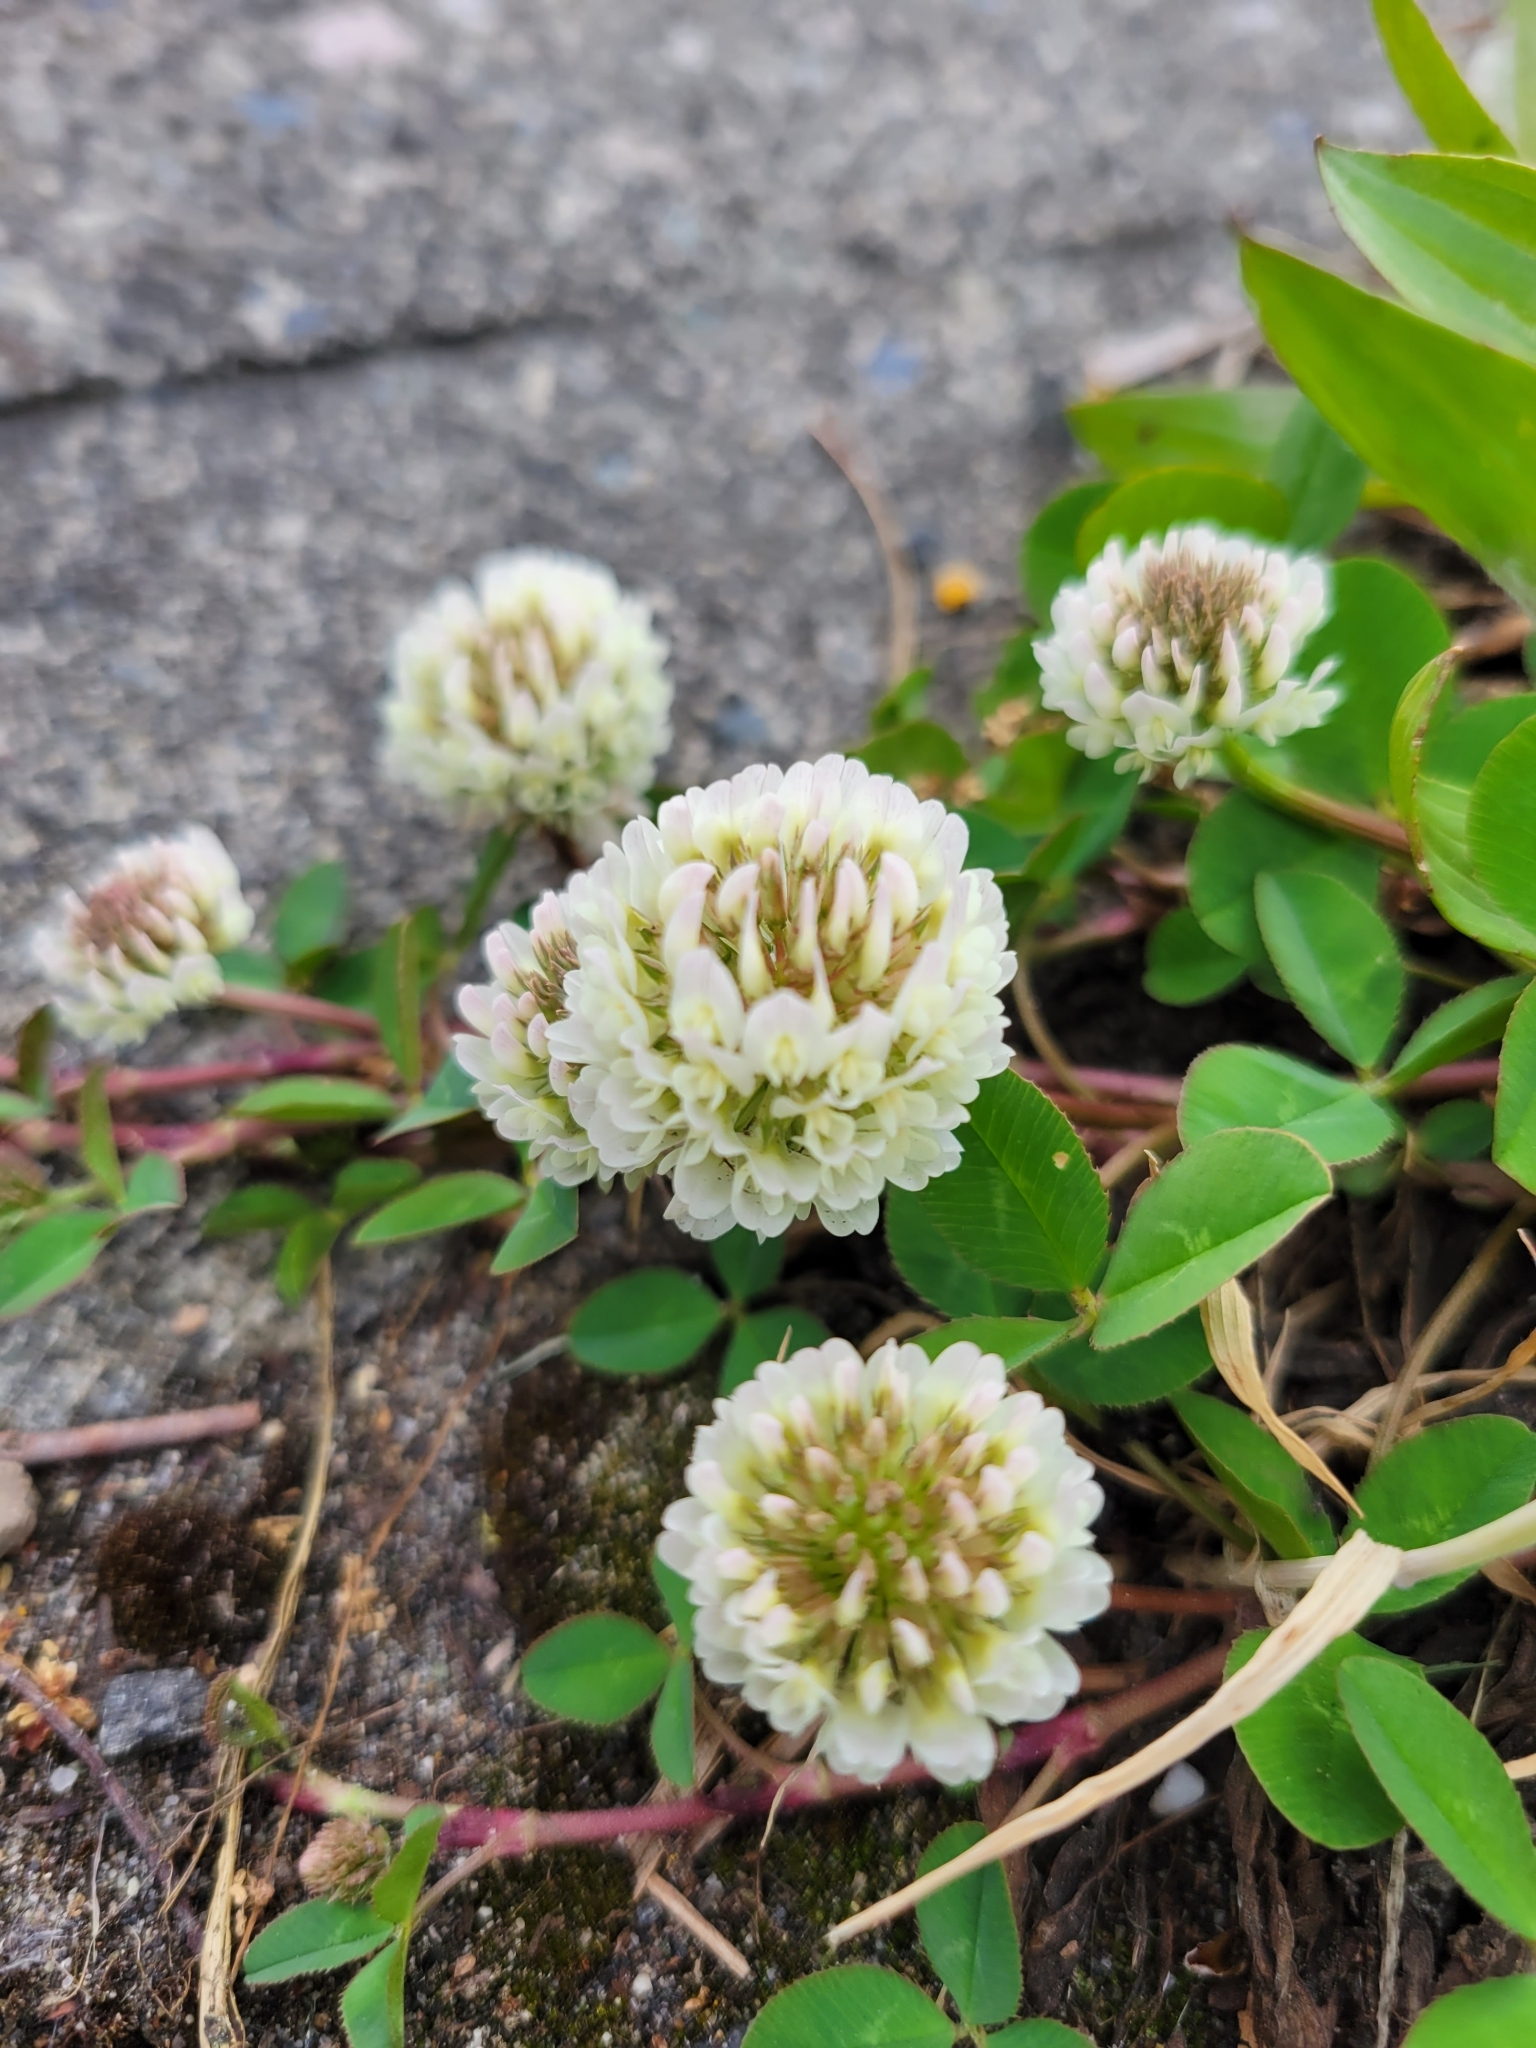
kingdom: Plantae
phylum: Tracheophyta
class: Magnoliopsida
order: Fabales
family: Fabaceae
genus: Trifolium
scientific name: Trifolium repens
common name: White clover
